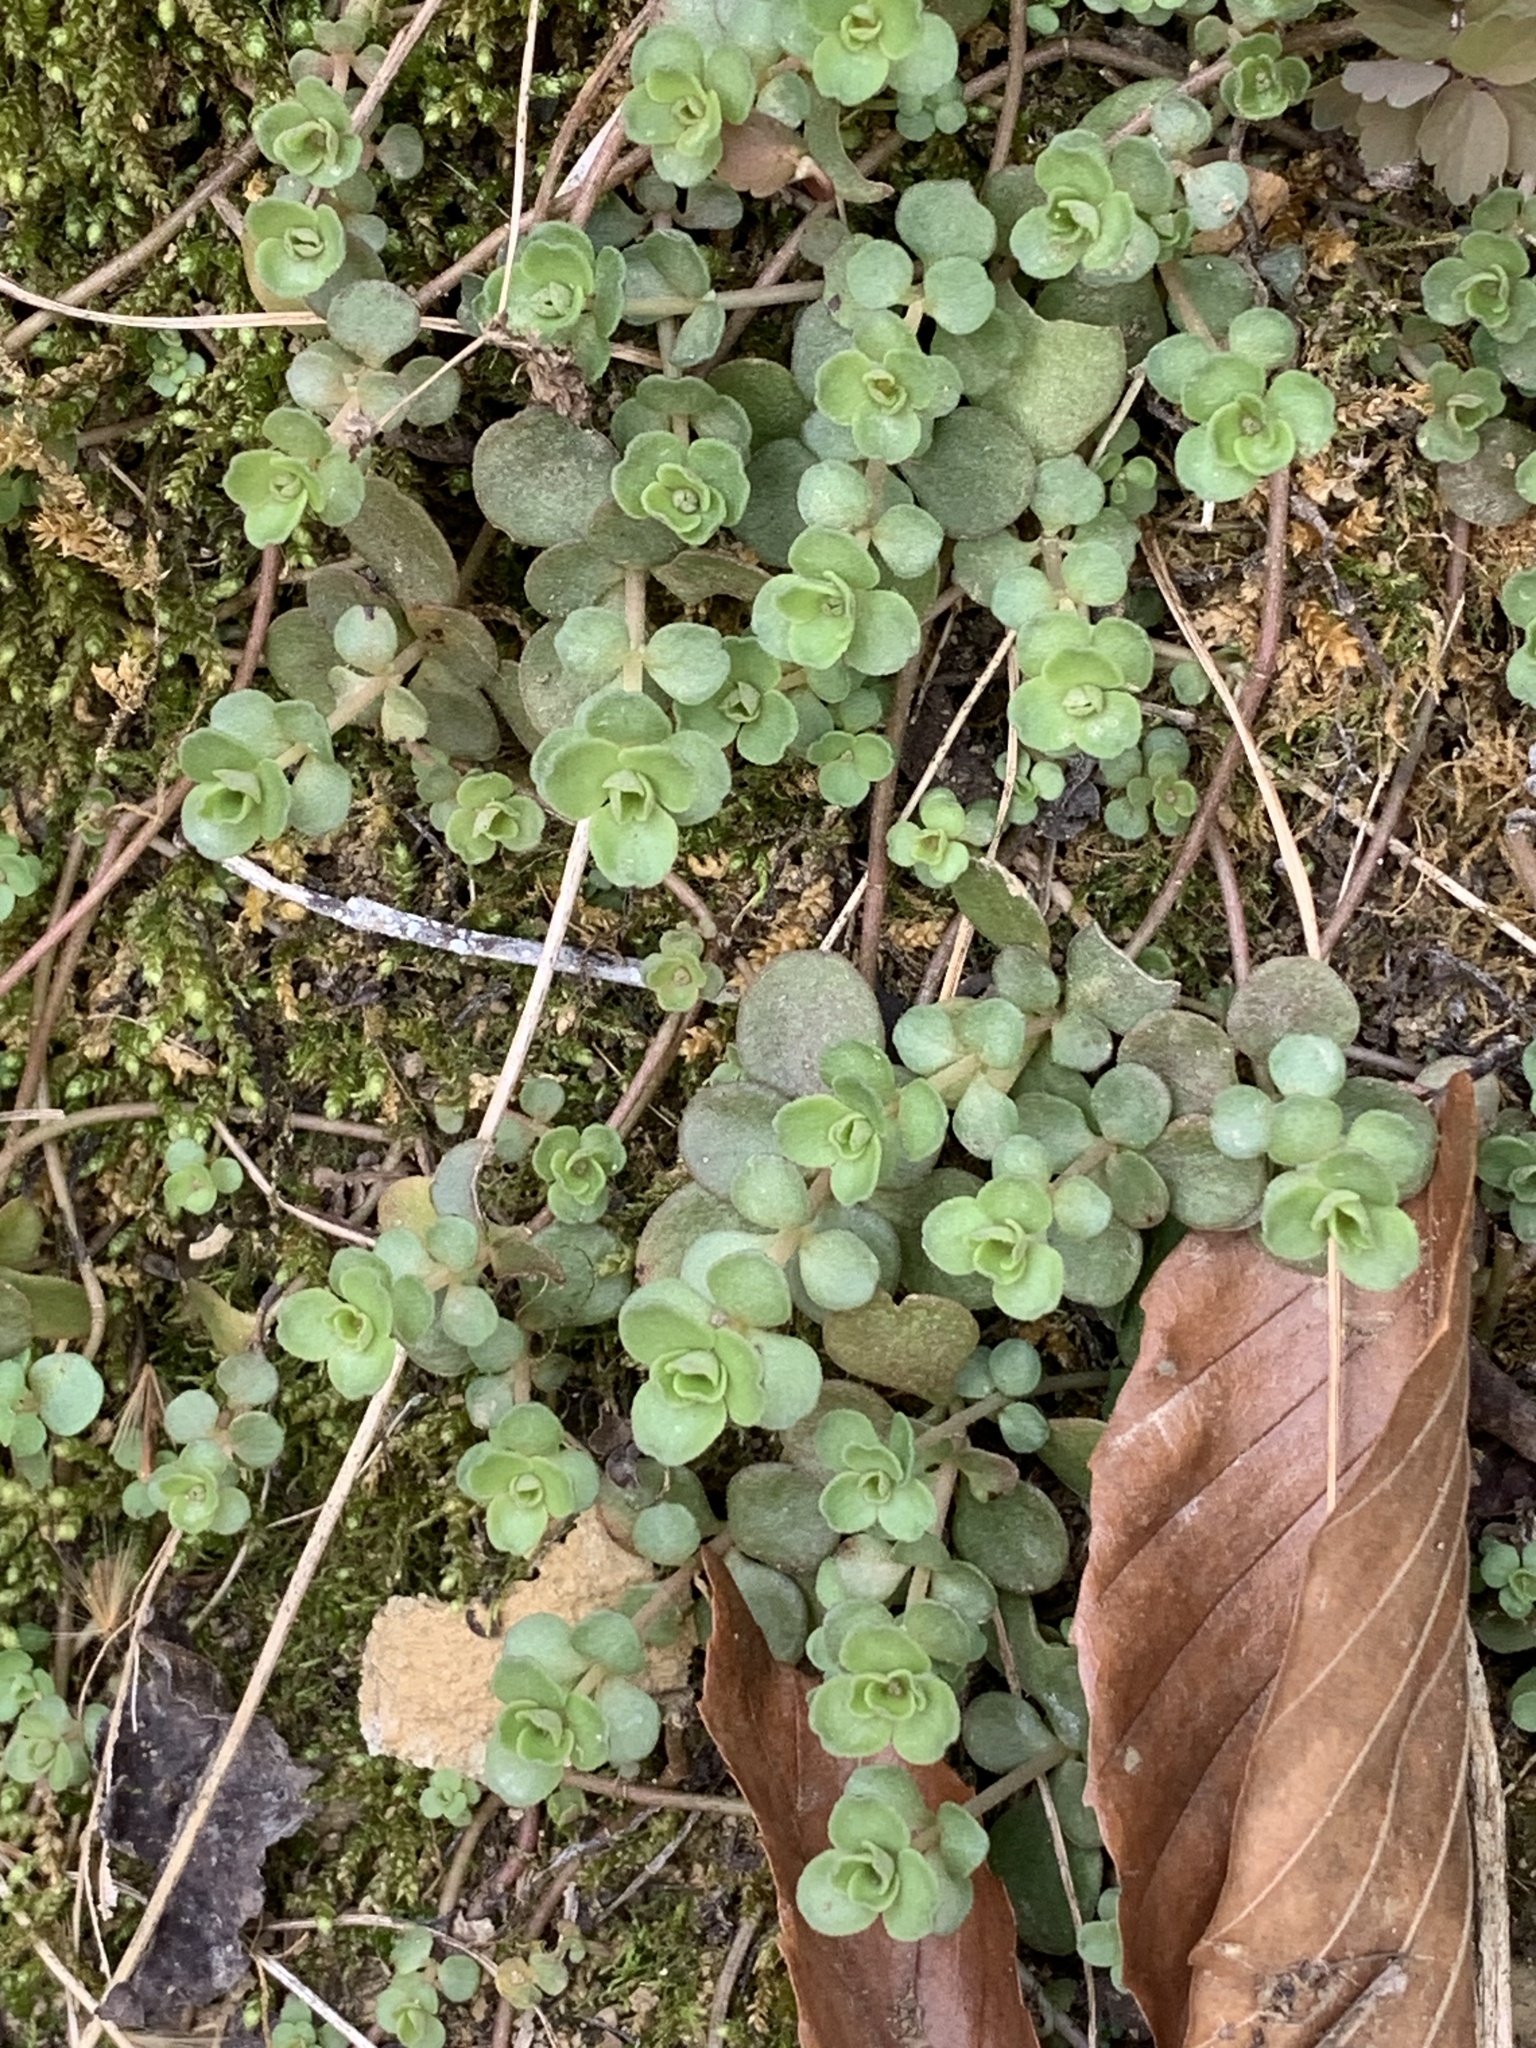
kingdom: Plantae
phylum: Tracheophyta
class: Magnoliopsida
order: Saxifragales
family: Crassulaceae
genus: Sedum
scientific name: Sedum ternatum
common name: Wild stonecrop
